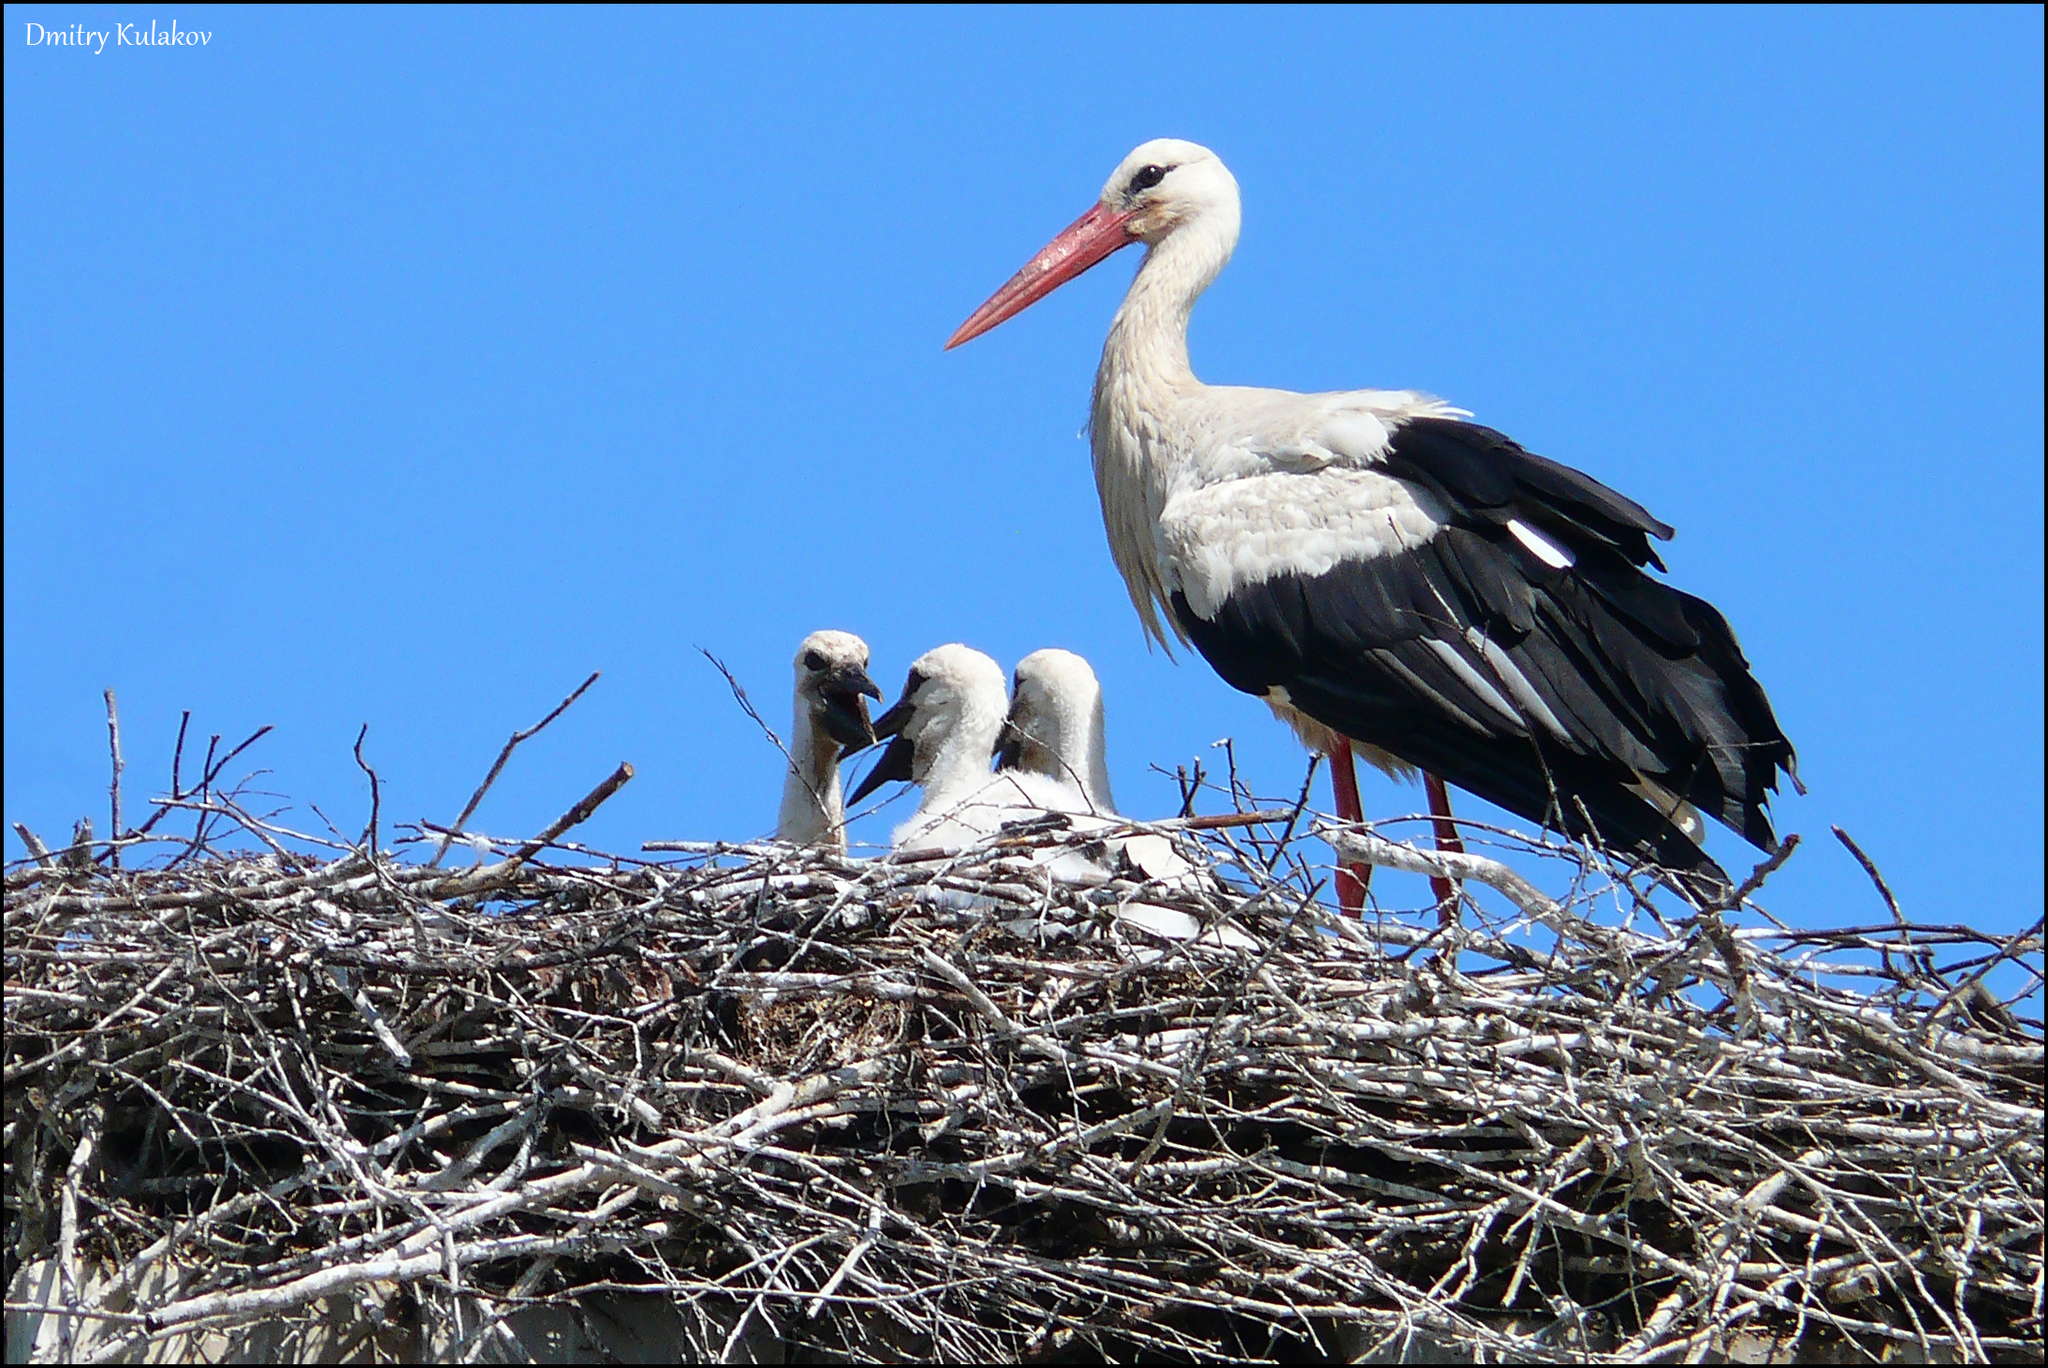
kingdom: Animalia
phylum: Chordata
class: Aves
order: Ciconiiformes
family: Ciconiidae
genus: Ciconia
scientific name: Ciconia ciconia
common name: White stork
